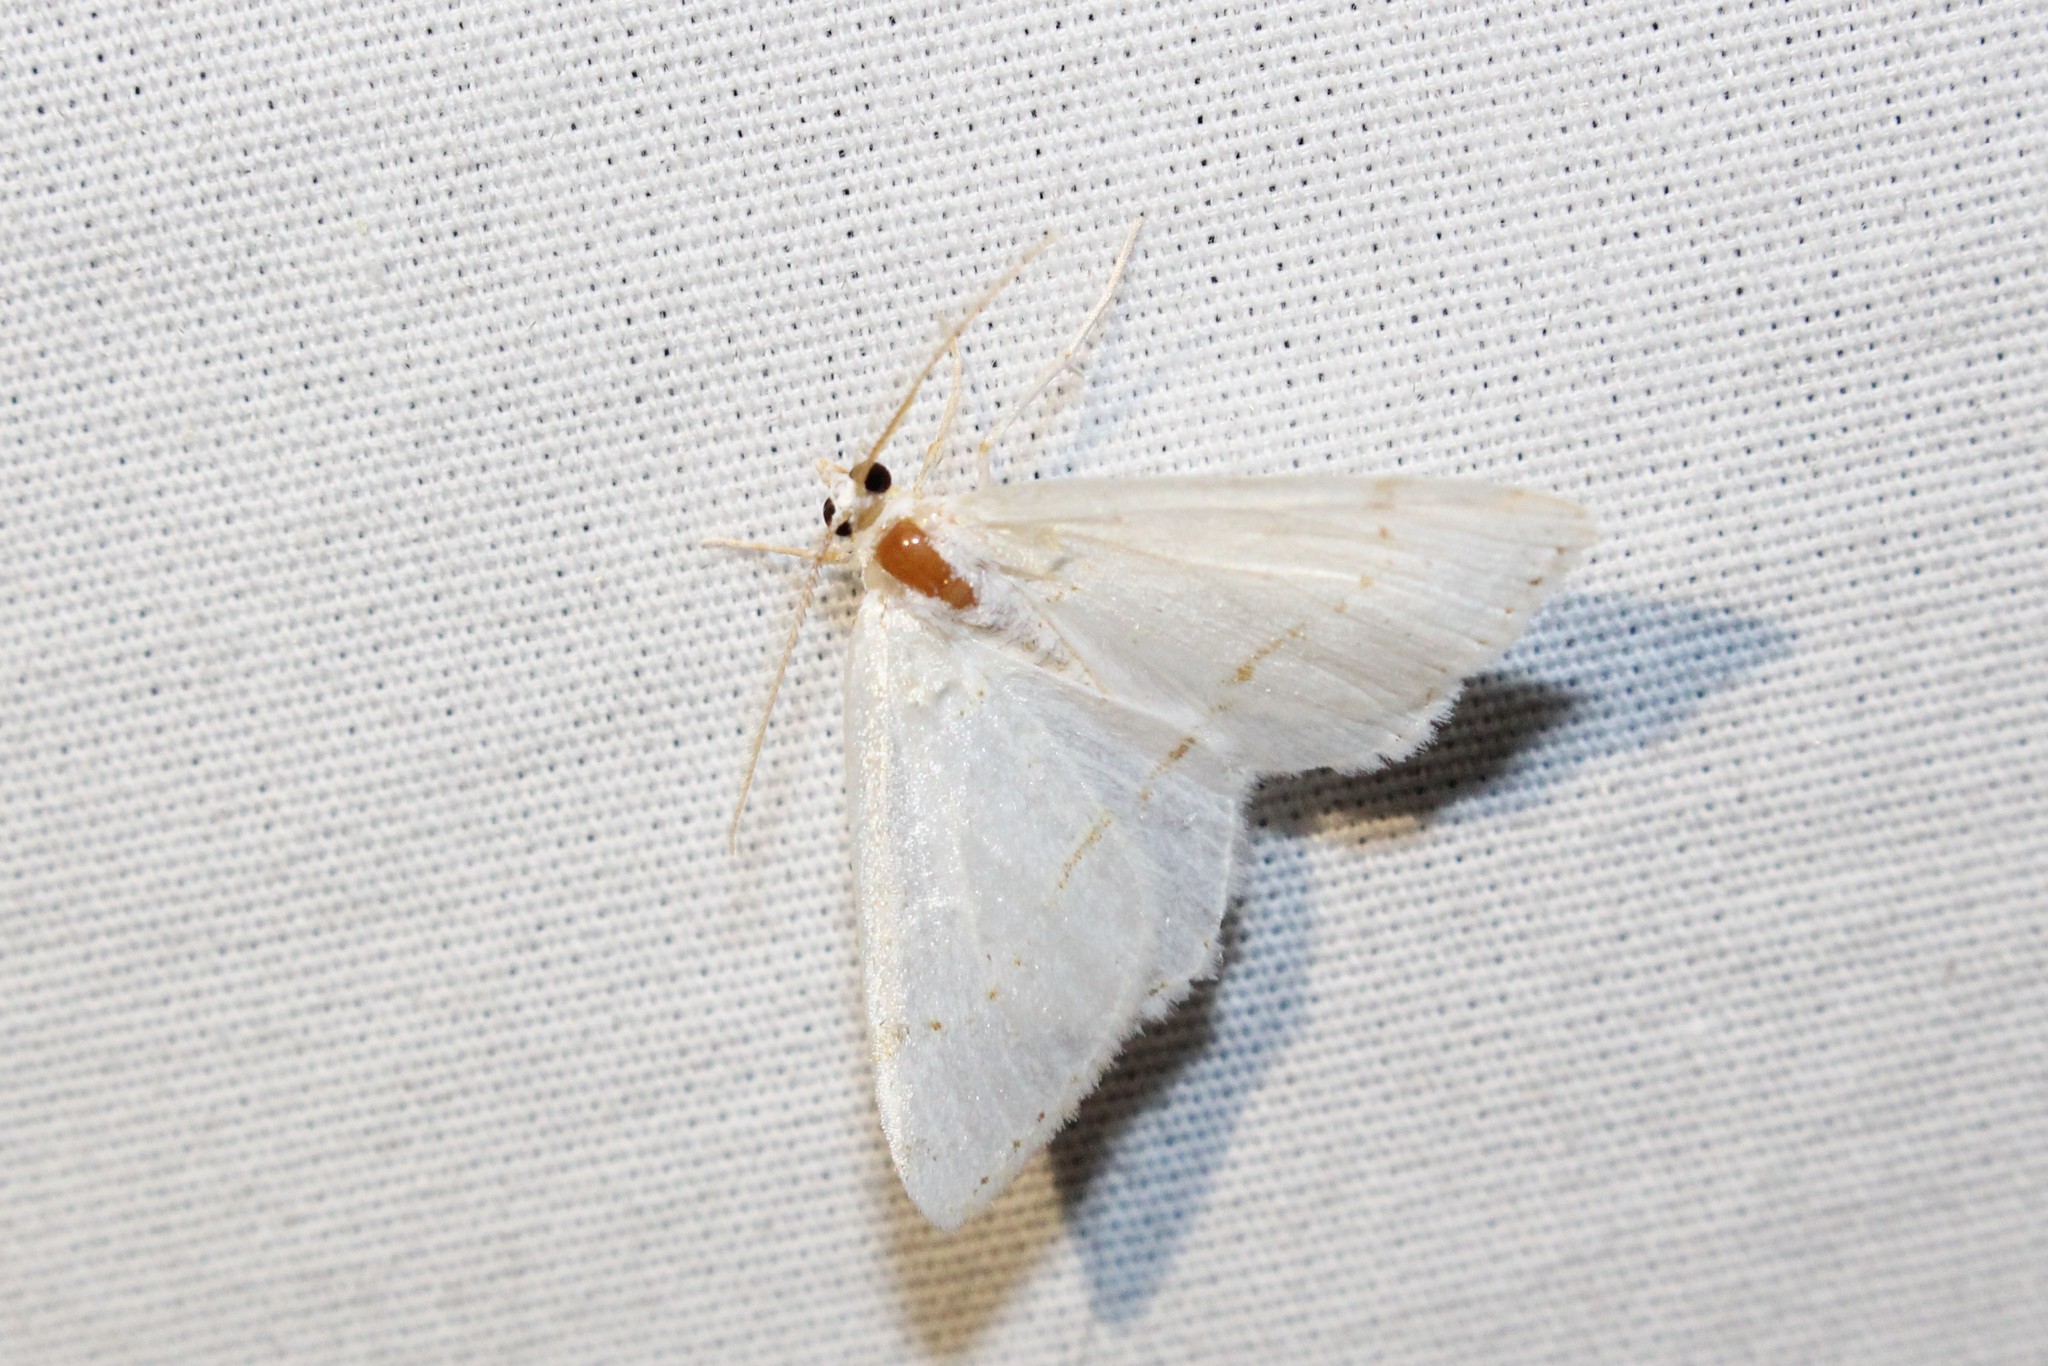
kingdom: Animalia
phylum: Arthropoda
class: Insecta
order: Lepidoptera
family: Geometridae
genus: Macaria
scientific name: Macaria pustularia
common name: Lesser maple spanworm moth
